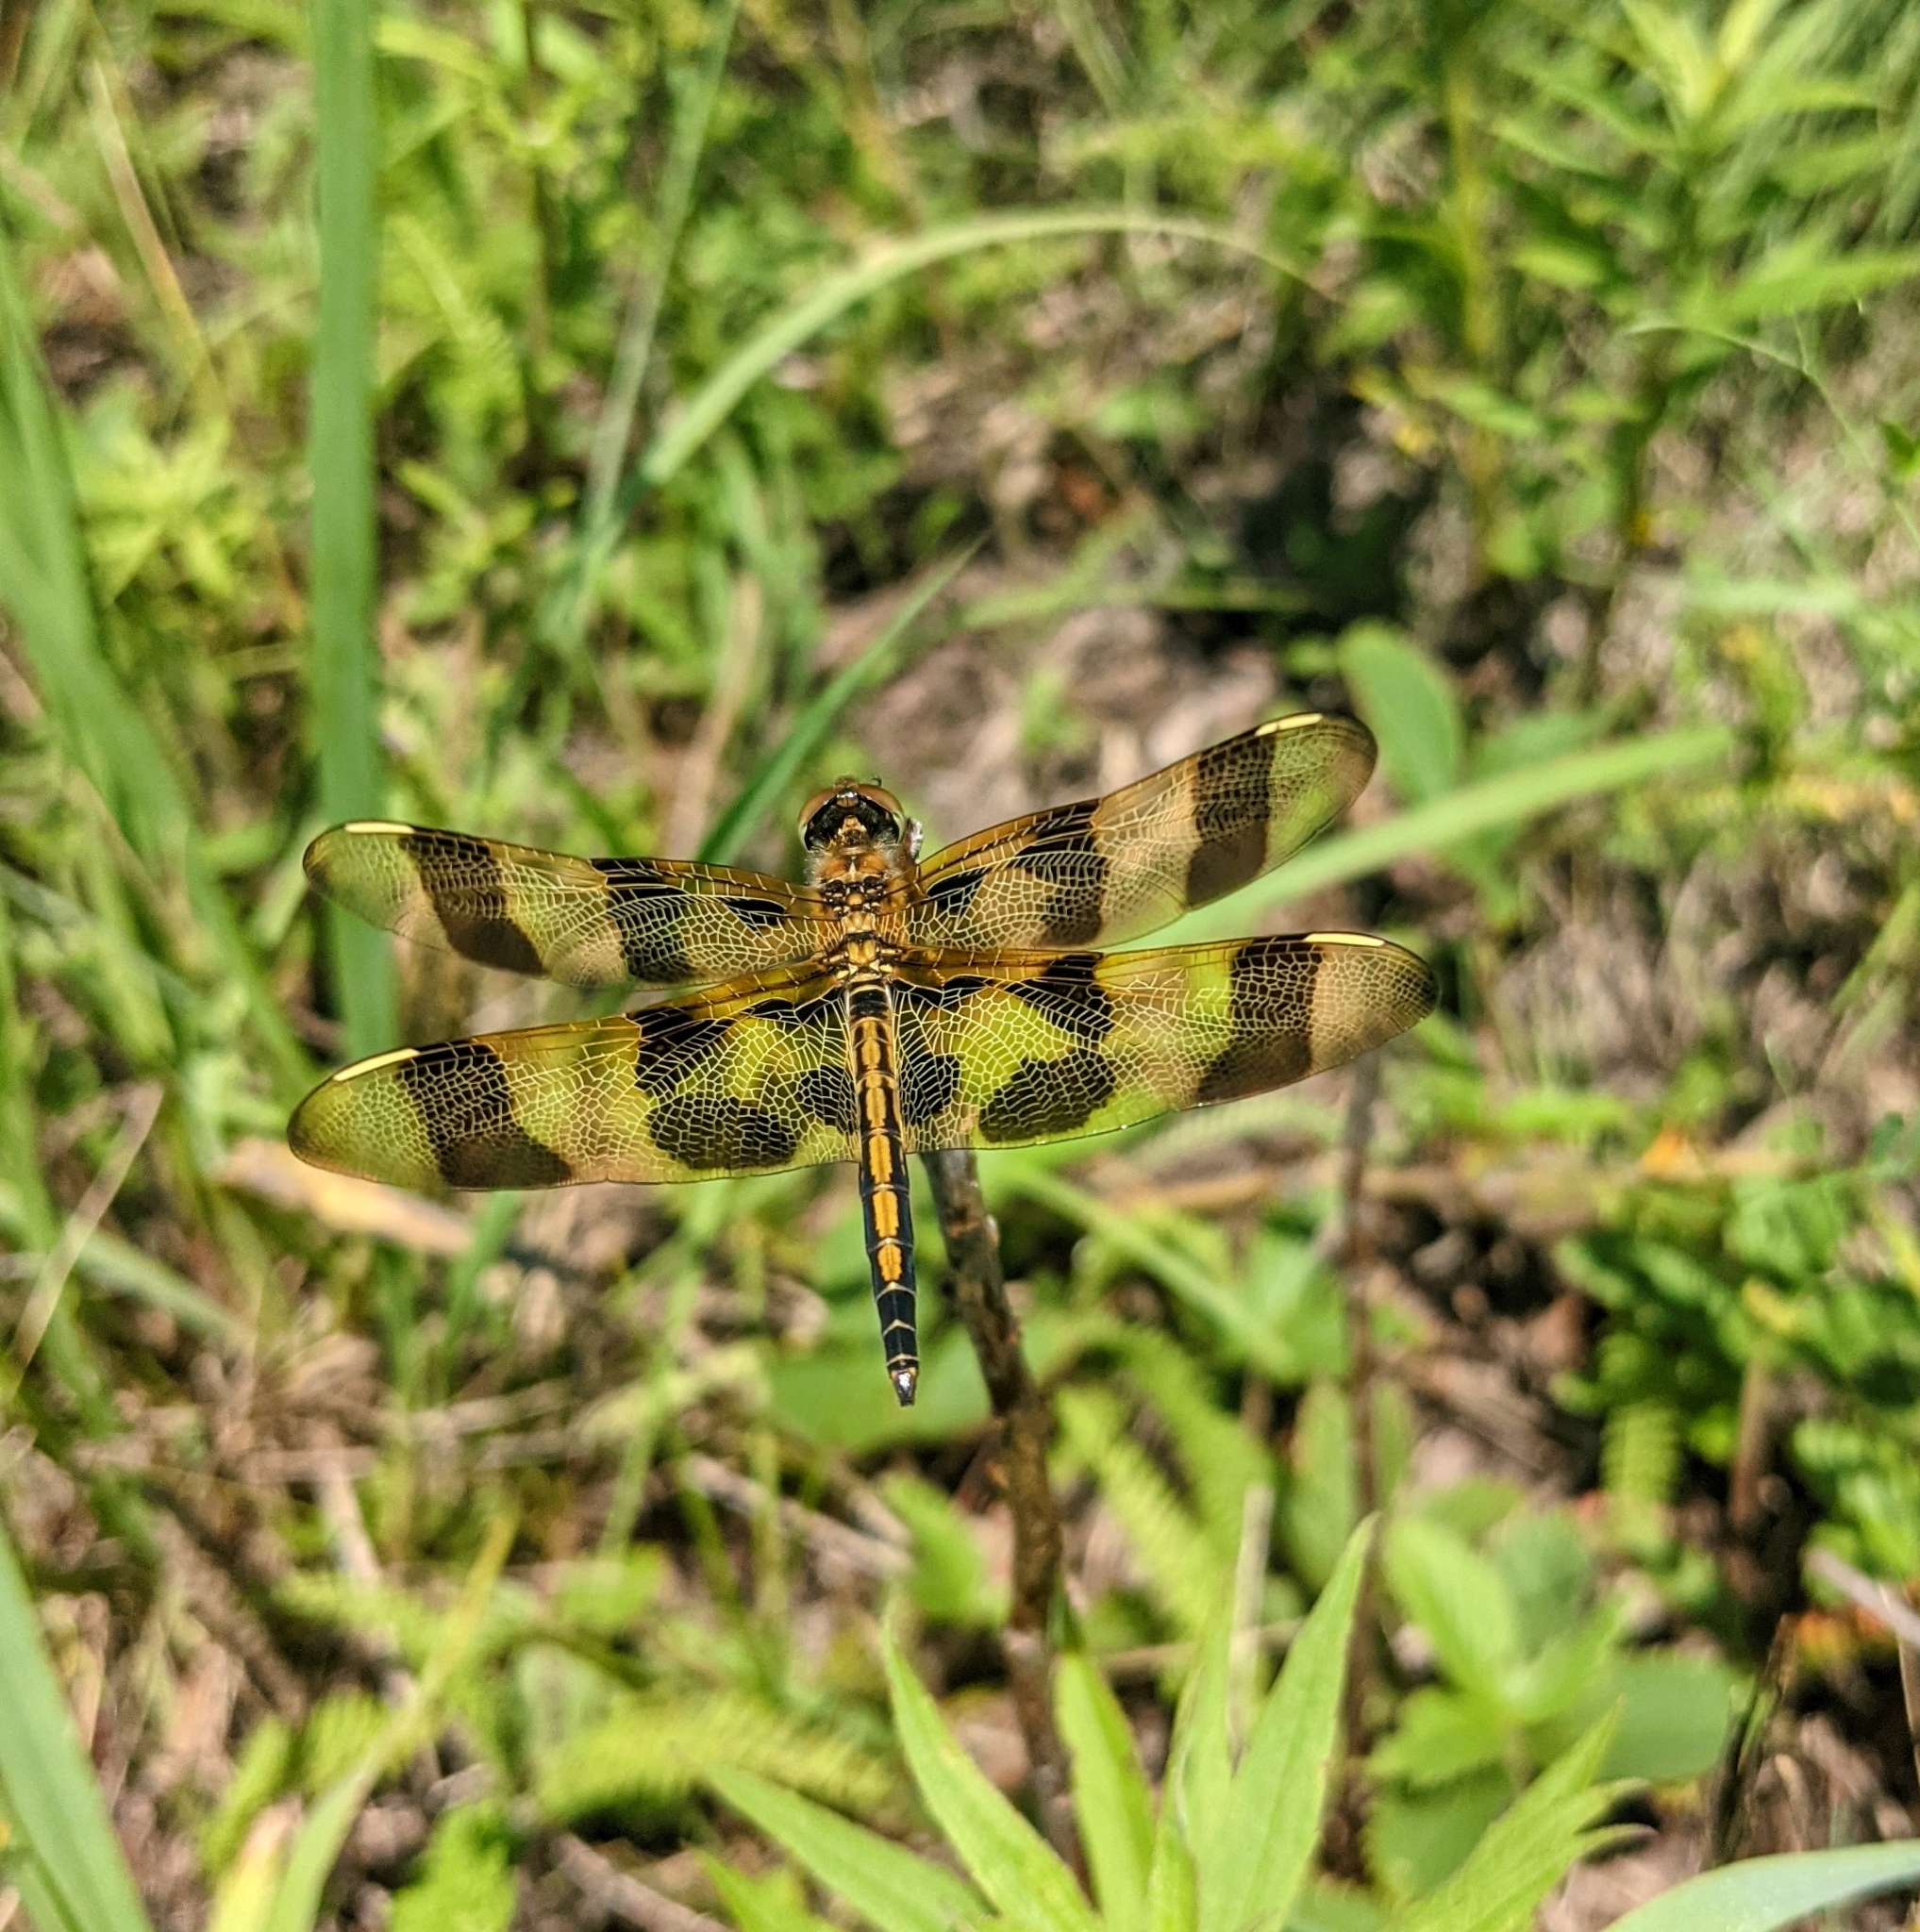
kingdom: Animalia
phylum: Arthropoda
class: Insecta
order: Odonata
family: Libellulidae
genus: Celithemis
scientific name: Celithemis eponina
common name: Halloween pennant
